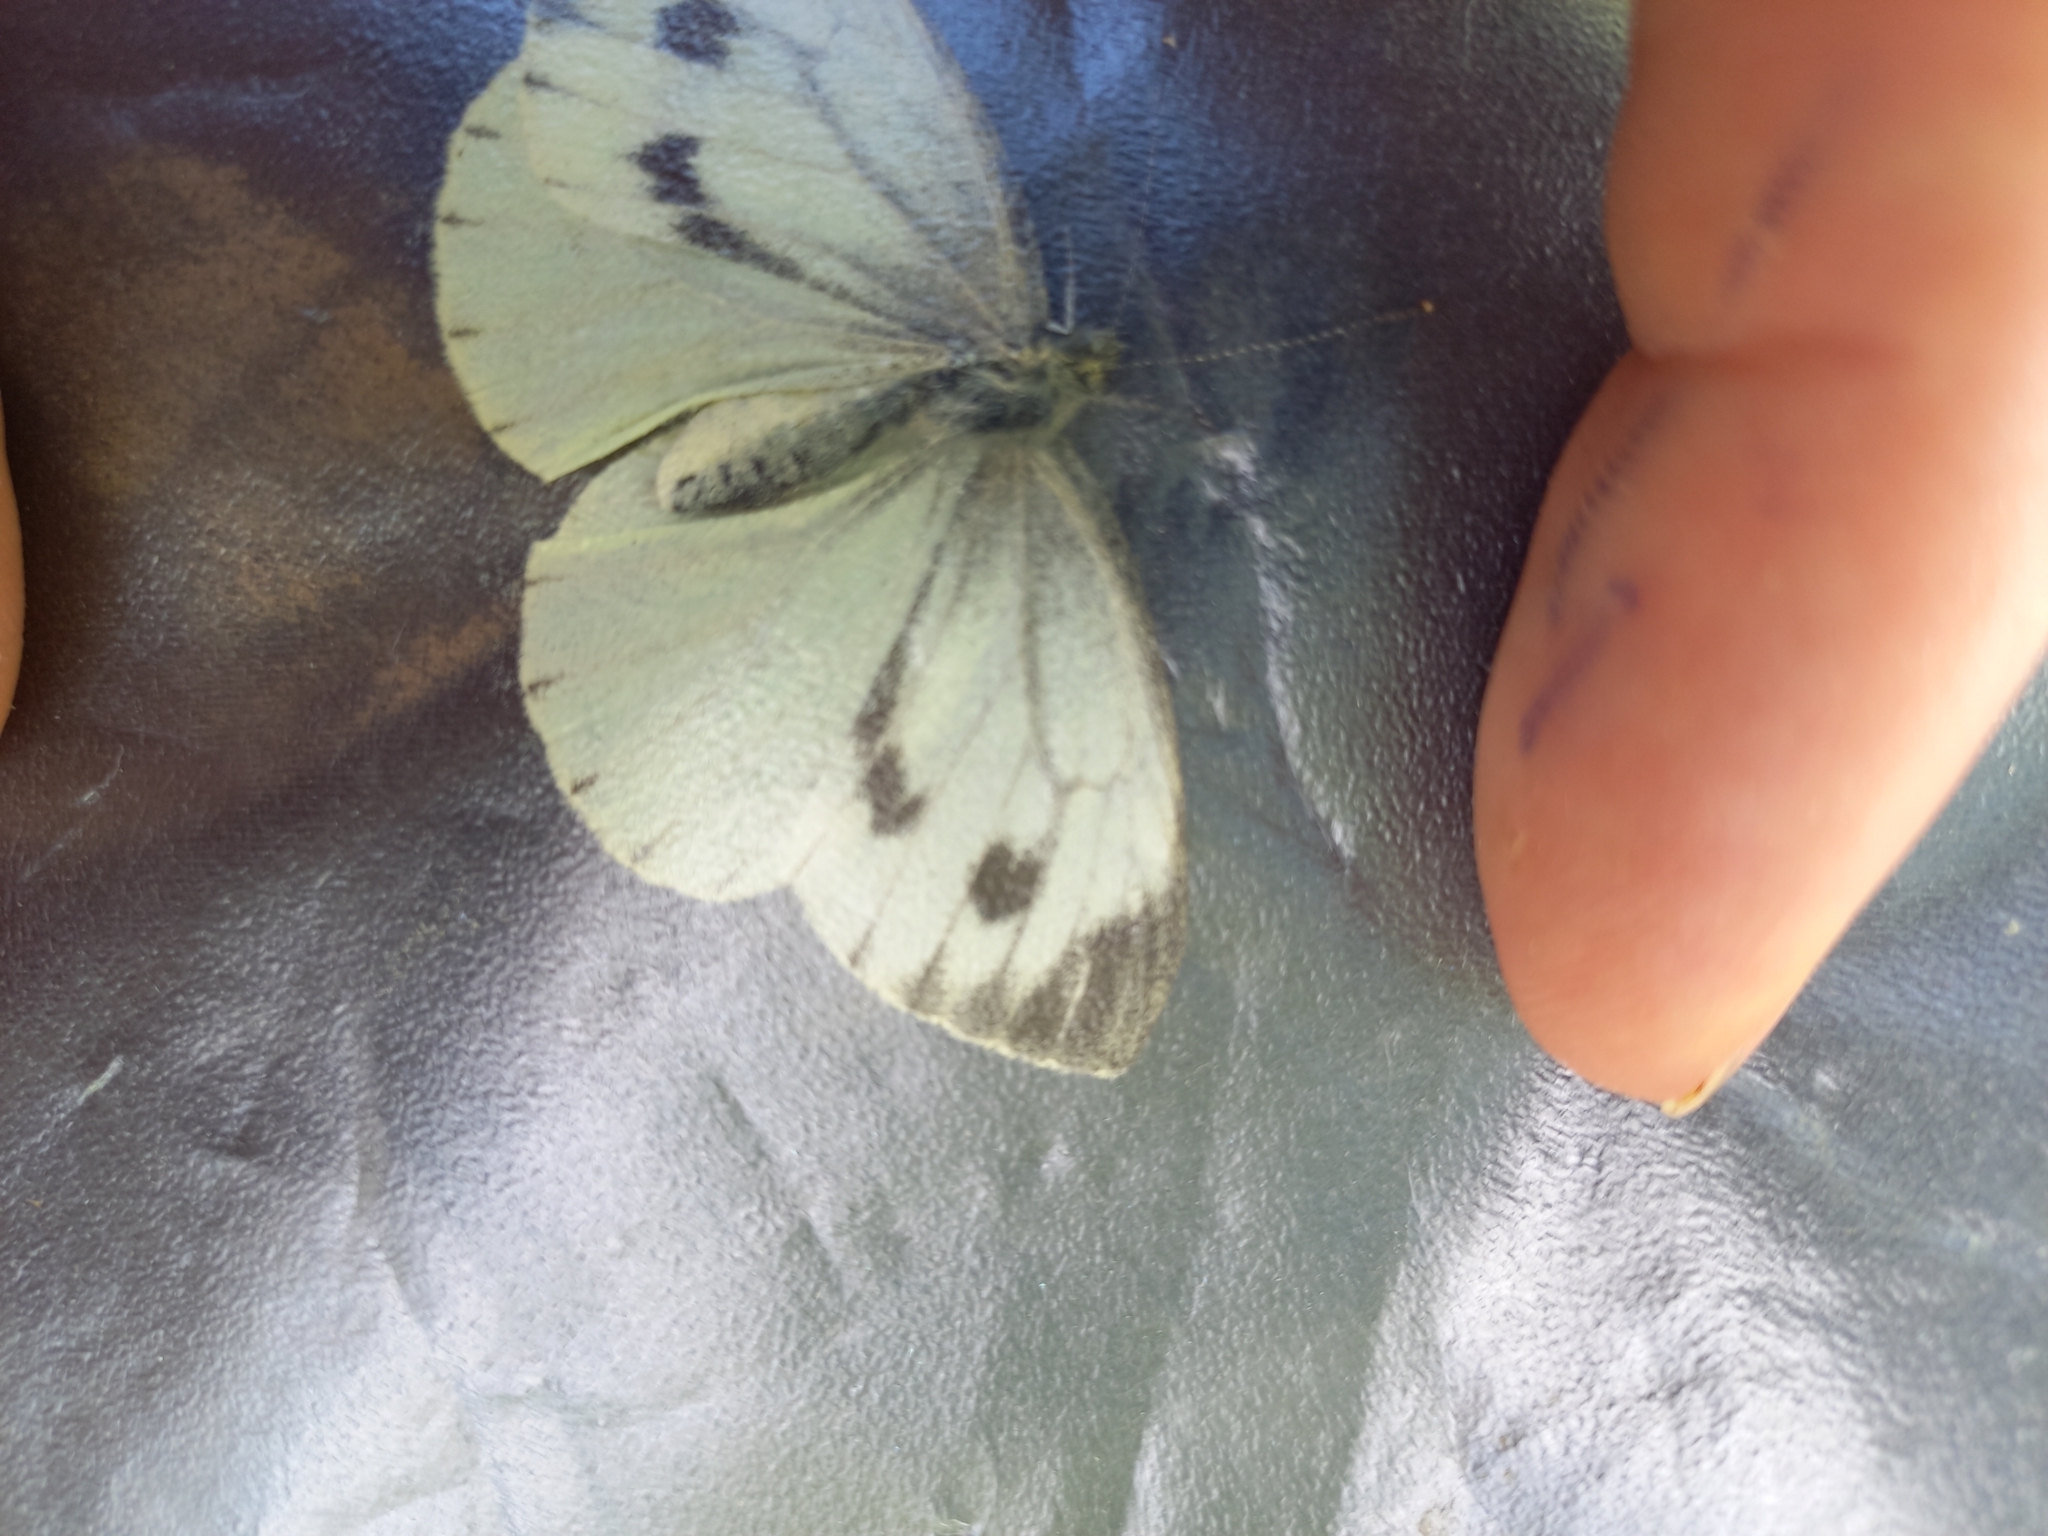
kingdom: Animalia
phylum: Arthropoda
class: Insecta
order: Lepidoptera
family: Pieridae
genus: Pieris
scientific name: Pieris napi
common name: Green-veined white
